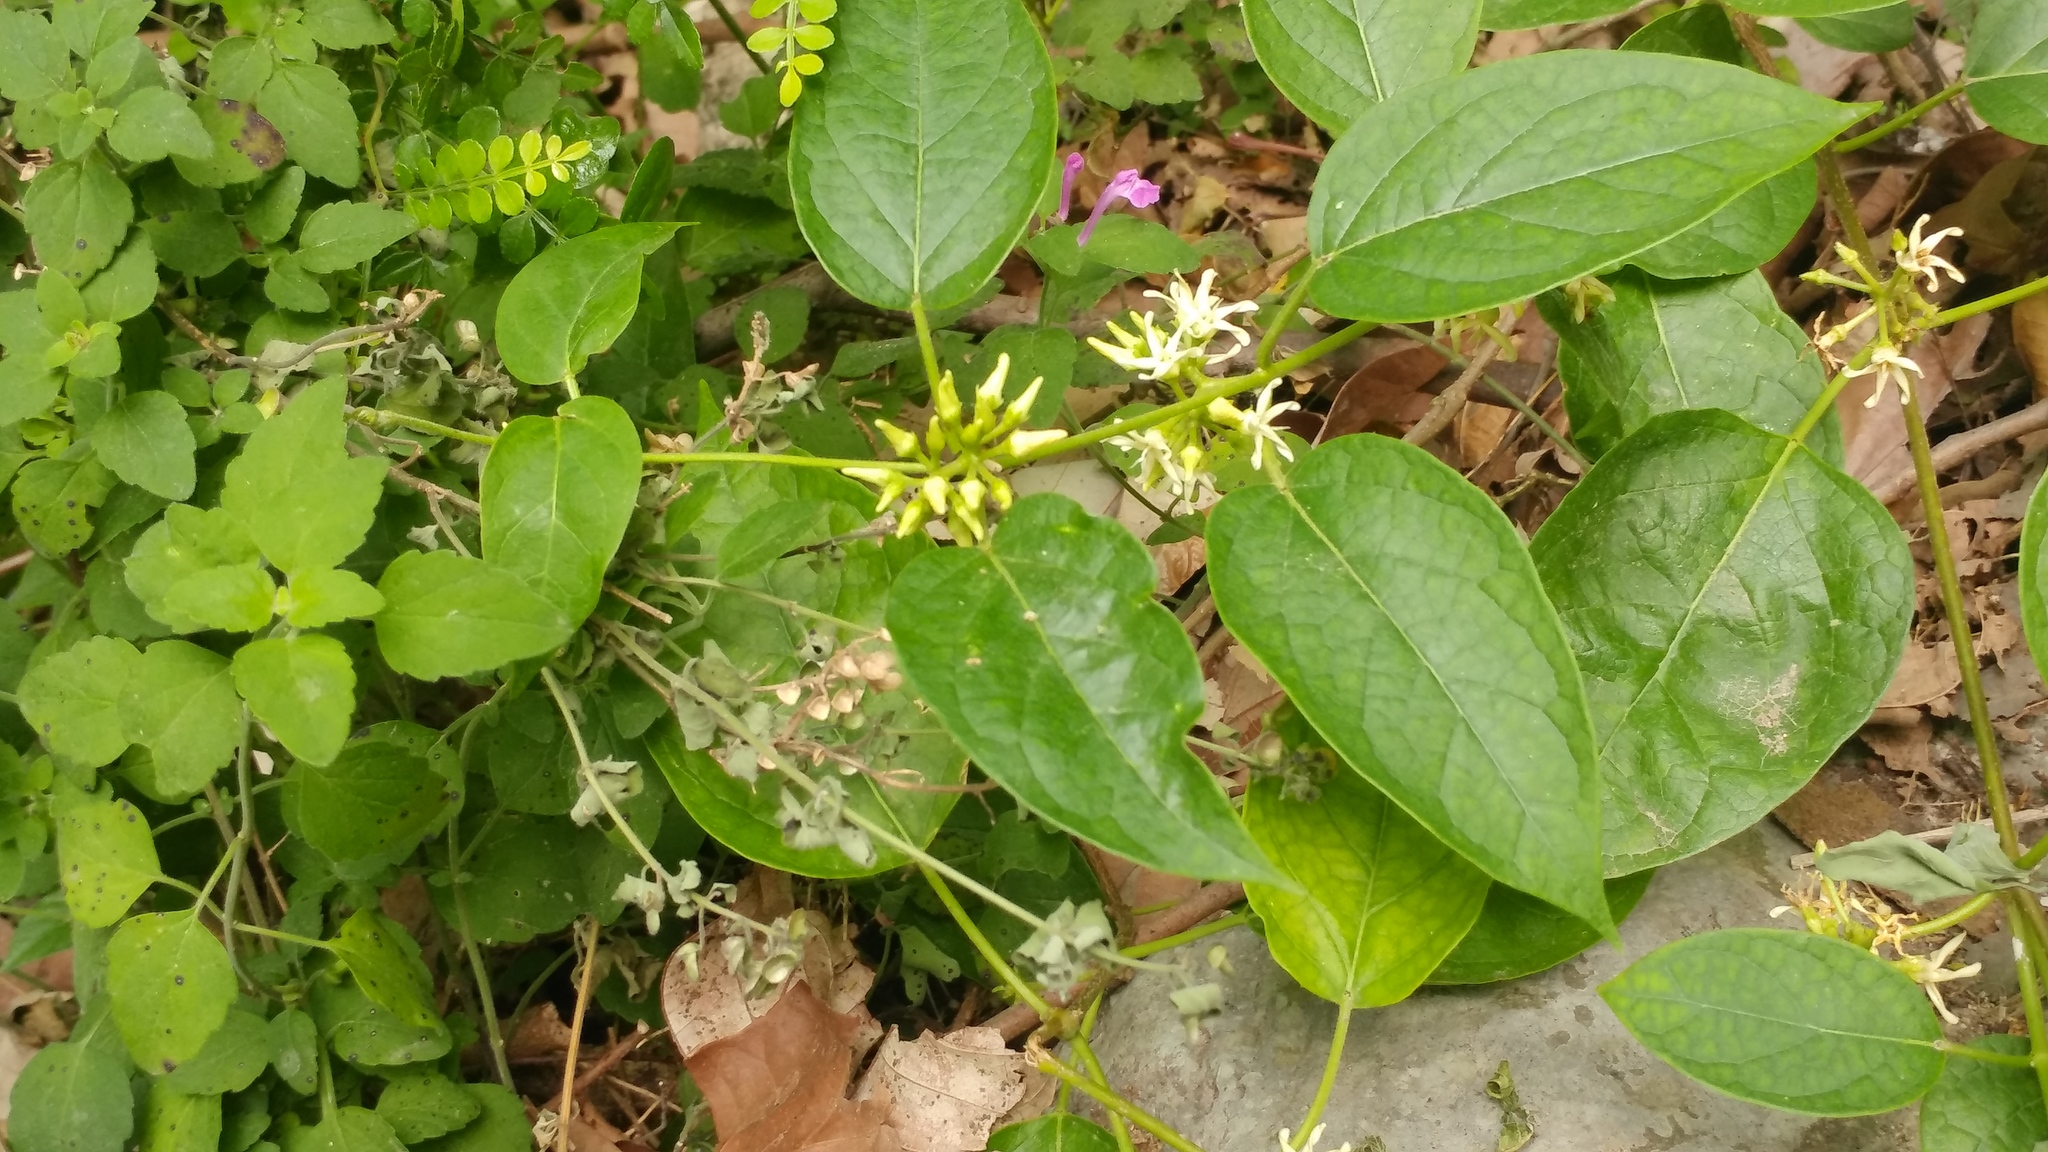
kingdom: Plantae
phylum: Tracheophyta
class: Magnoliopsida
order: Gentianales
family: Apocynaceae
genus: Ruehssia
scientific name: Ruehssia pringlei
